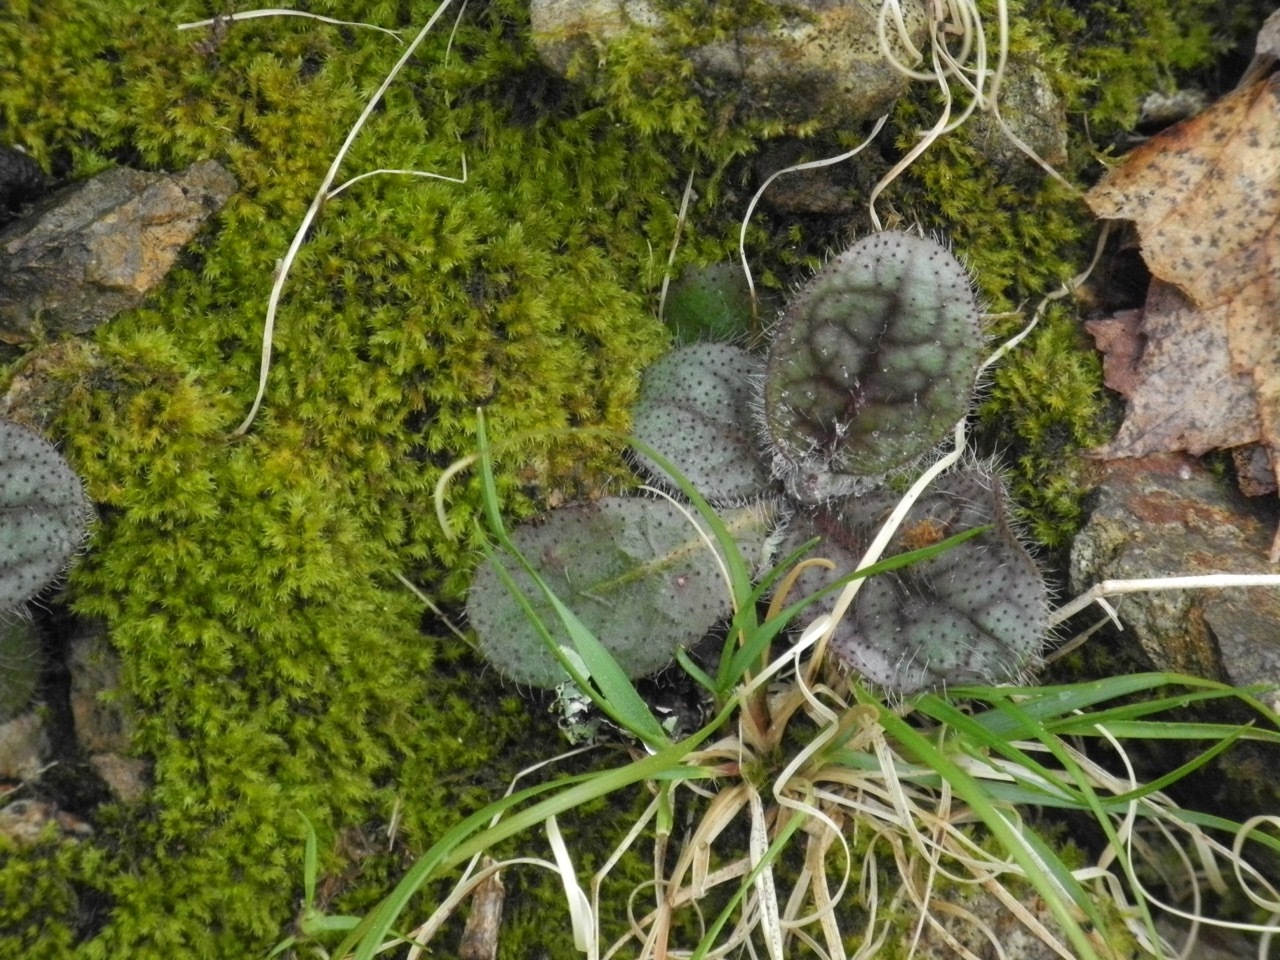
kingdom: Plantae
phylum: Tracheophyta
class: Magnoliopsida
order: Asterales
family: Asteraceae
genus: Hieracium
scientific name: Hieracium marianum
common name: Maryland hawkweed
